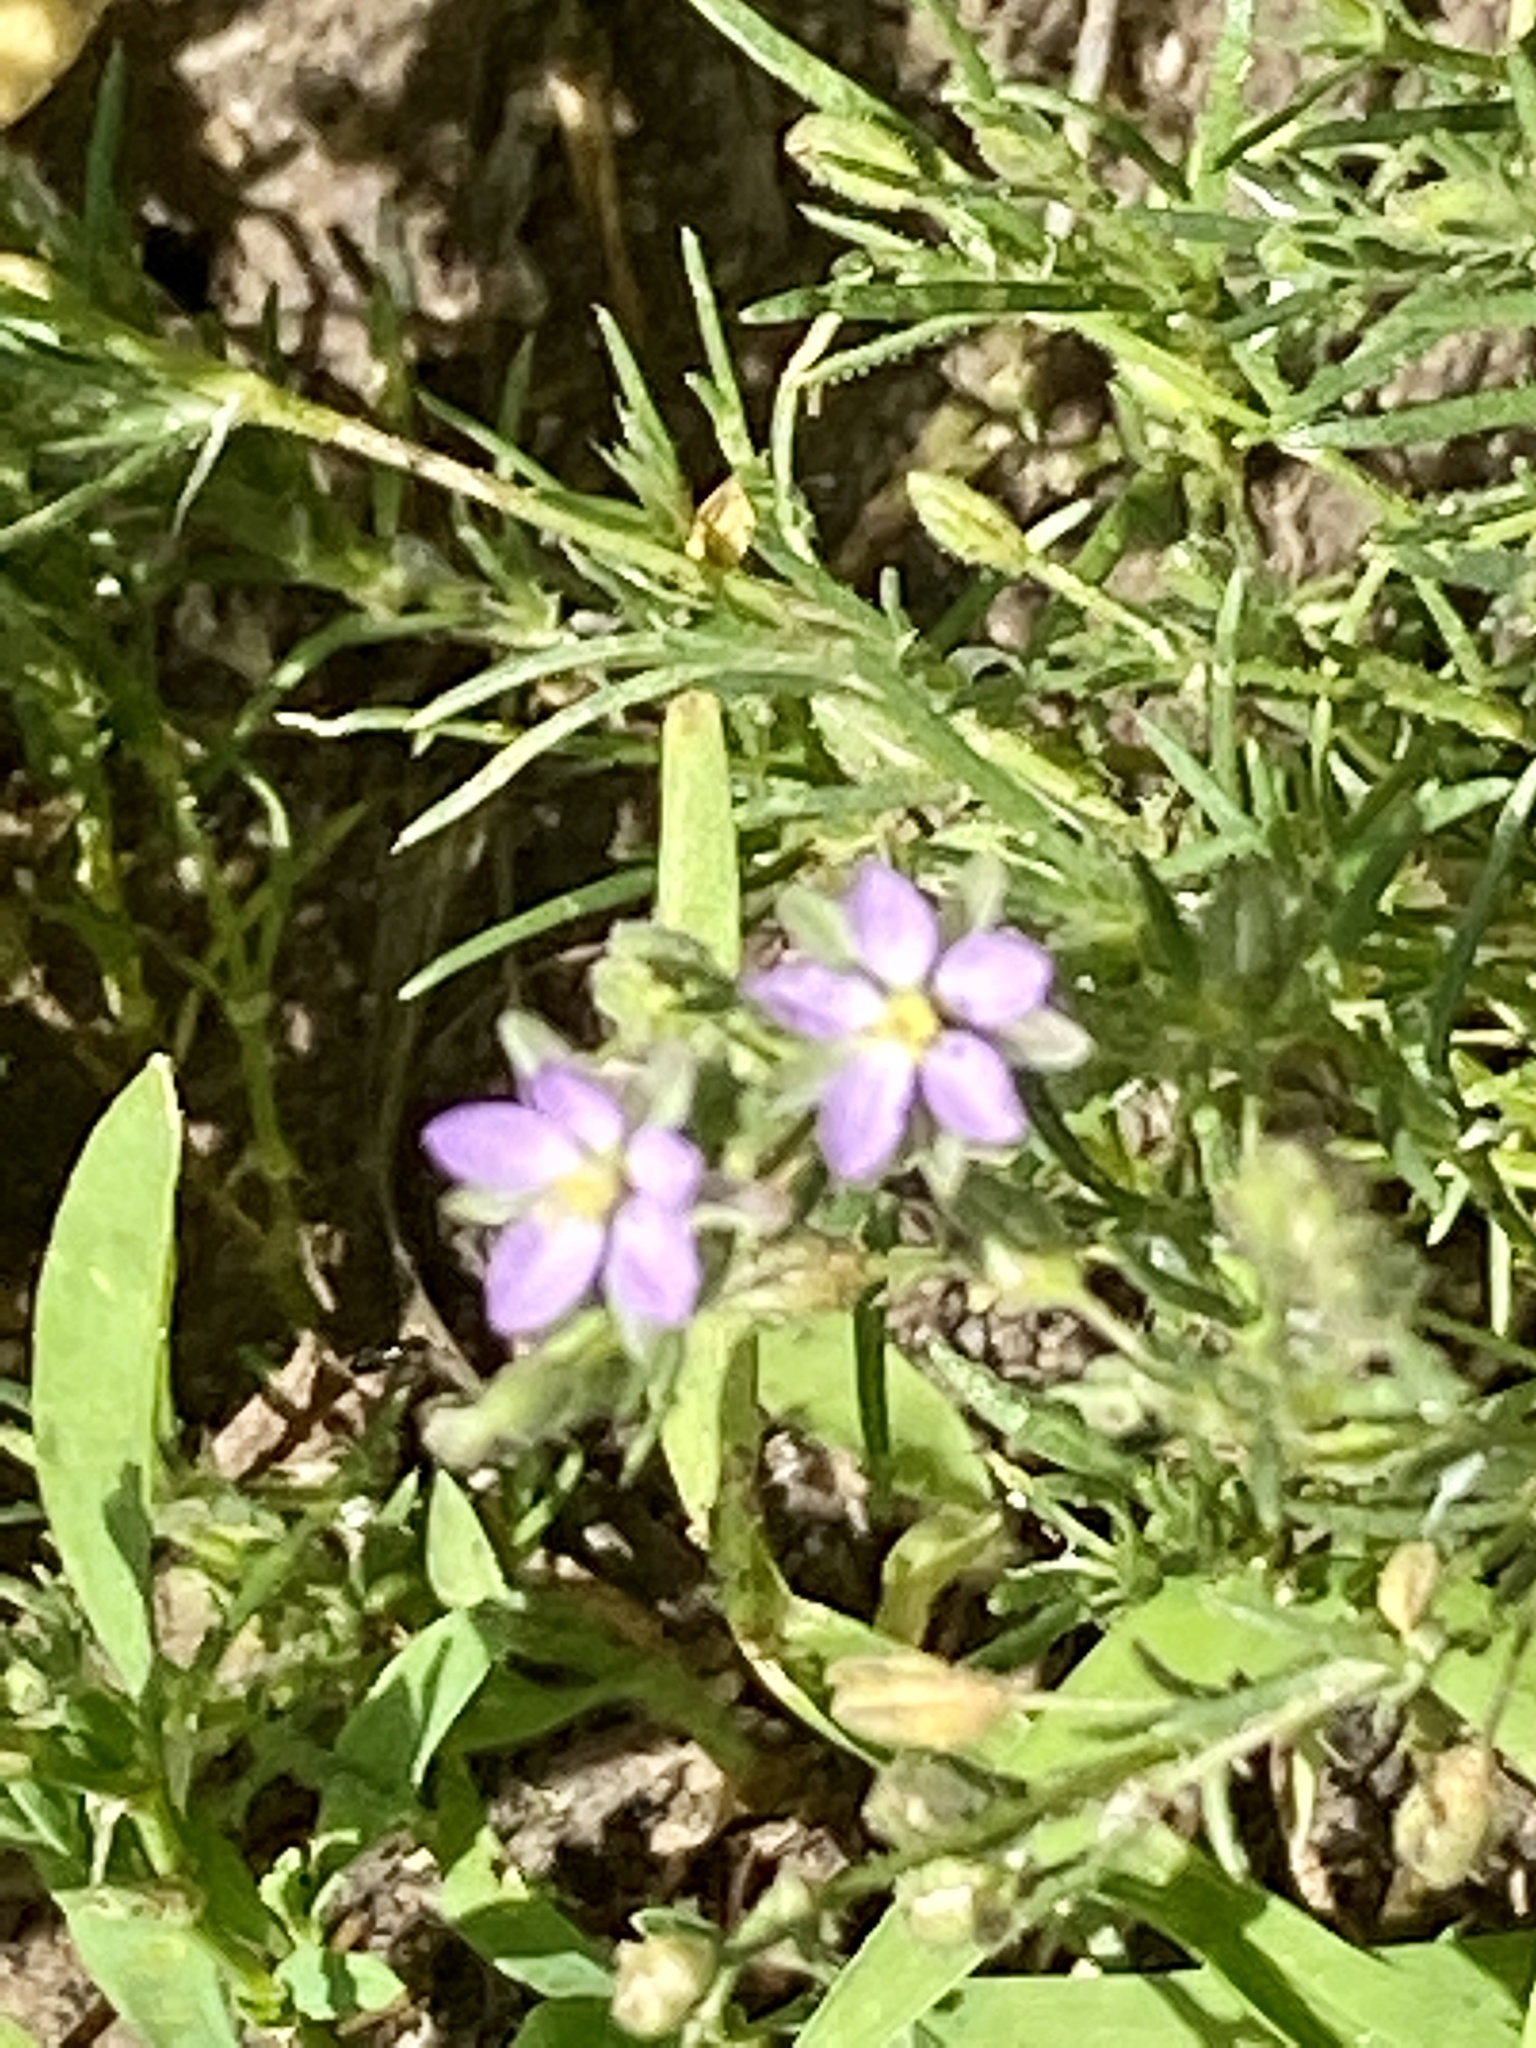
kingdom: Plantae
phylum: Tracheophyta
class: Magnoliopsida
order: Caryophyllales
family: Caryophyllaceae
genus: Spergularia
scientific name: Spergularia rubra
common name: Red sand-spurrey
